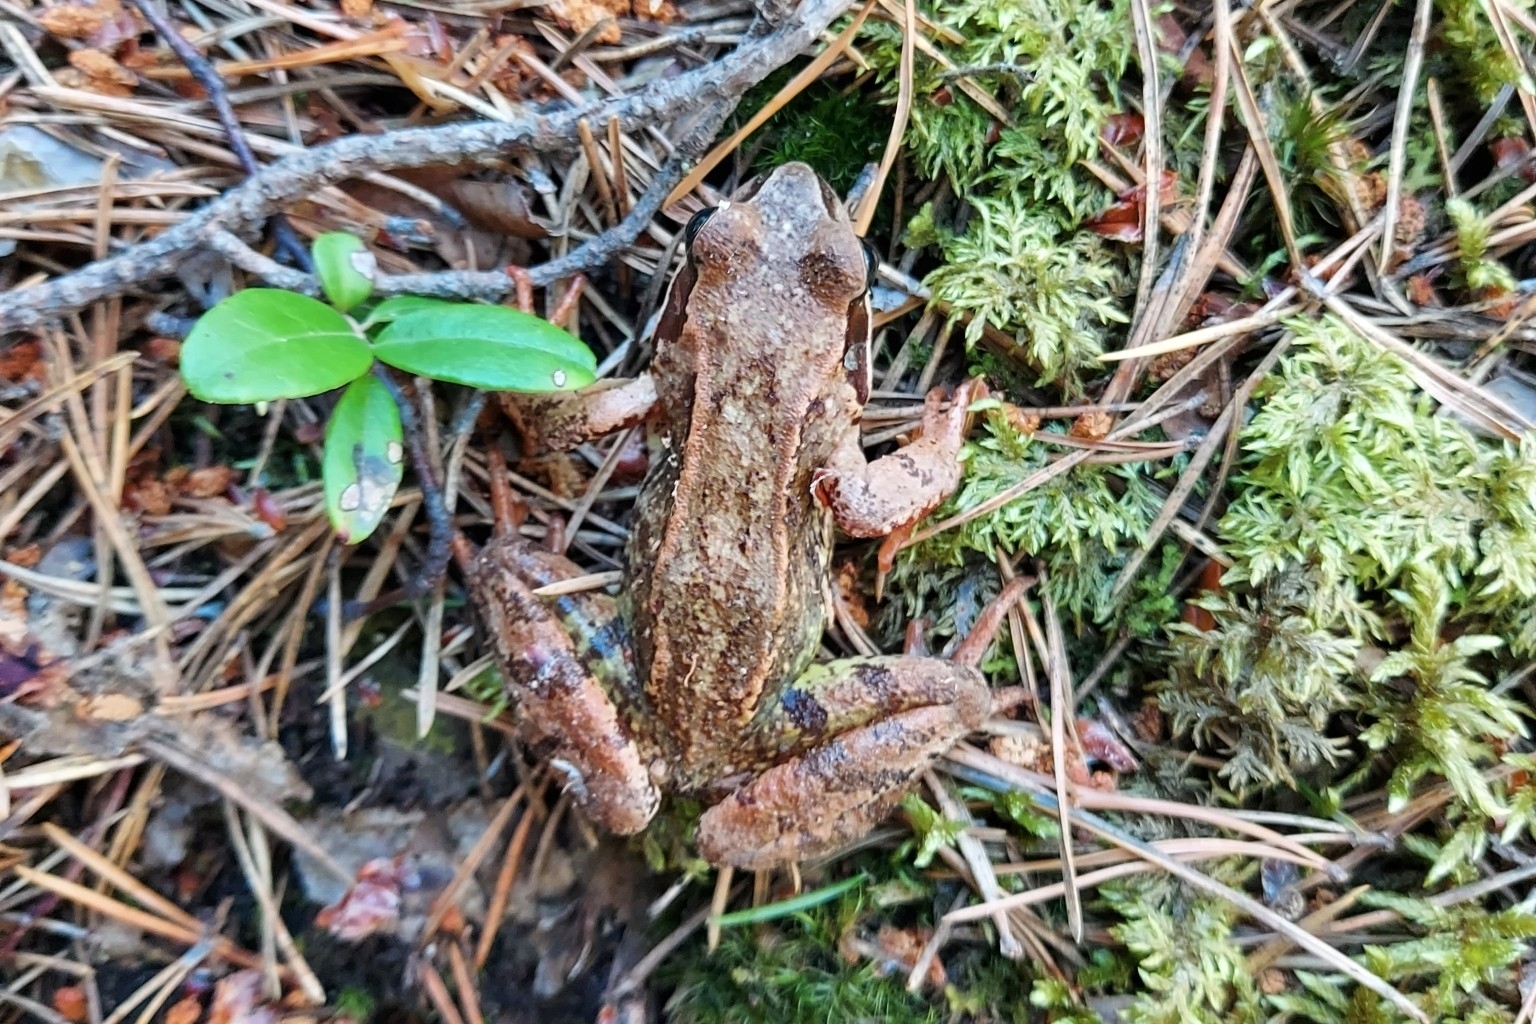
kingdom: Animalia
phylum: Chordata
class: Amphibia
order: Anura
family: Ranidae
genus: Rana
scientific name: Rana temporaria
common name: Common frog
